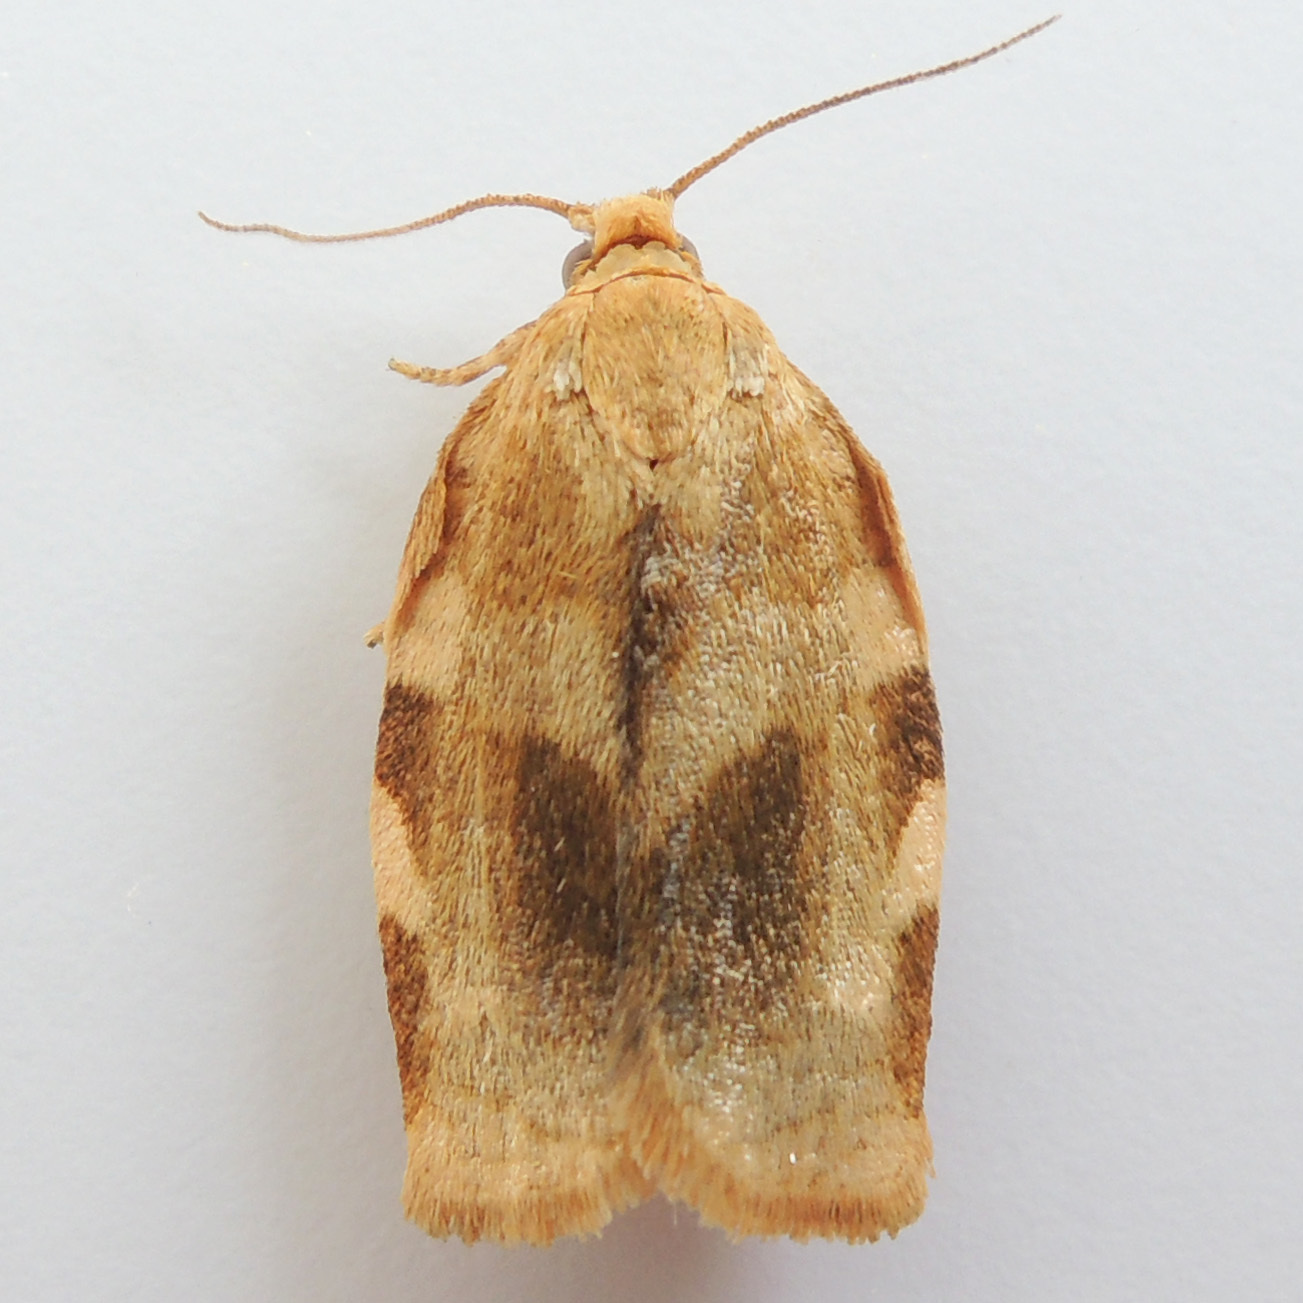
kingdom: Animalia
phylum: Arthropoda
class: Insecta
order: Lepidoptera
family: Tortricidae
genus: Choristoneura
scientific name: Choristoneura fractivittana
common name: Broken-banded leafroller moth
